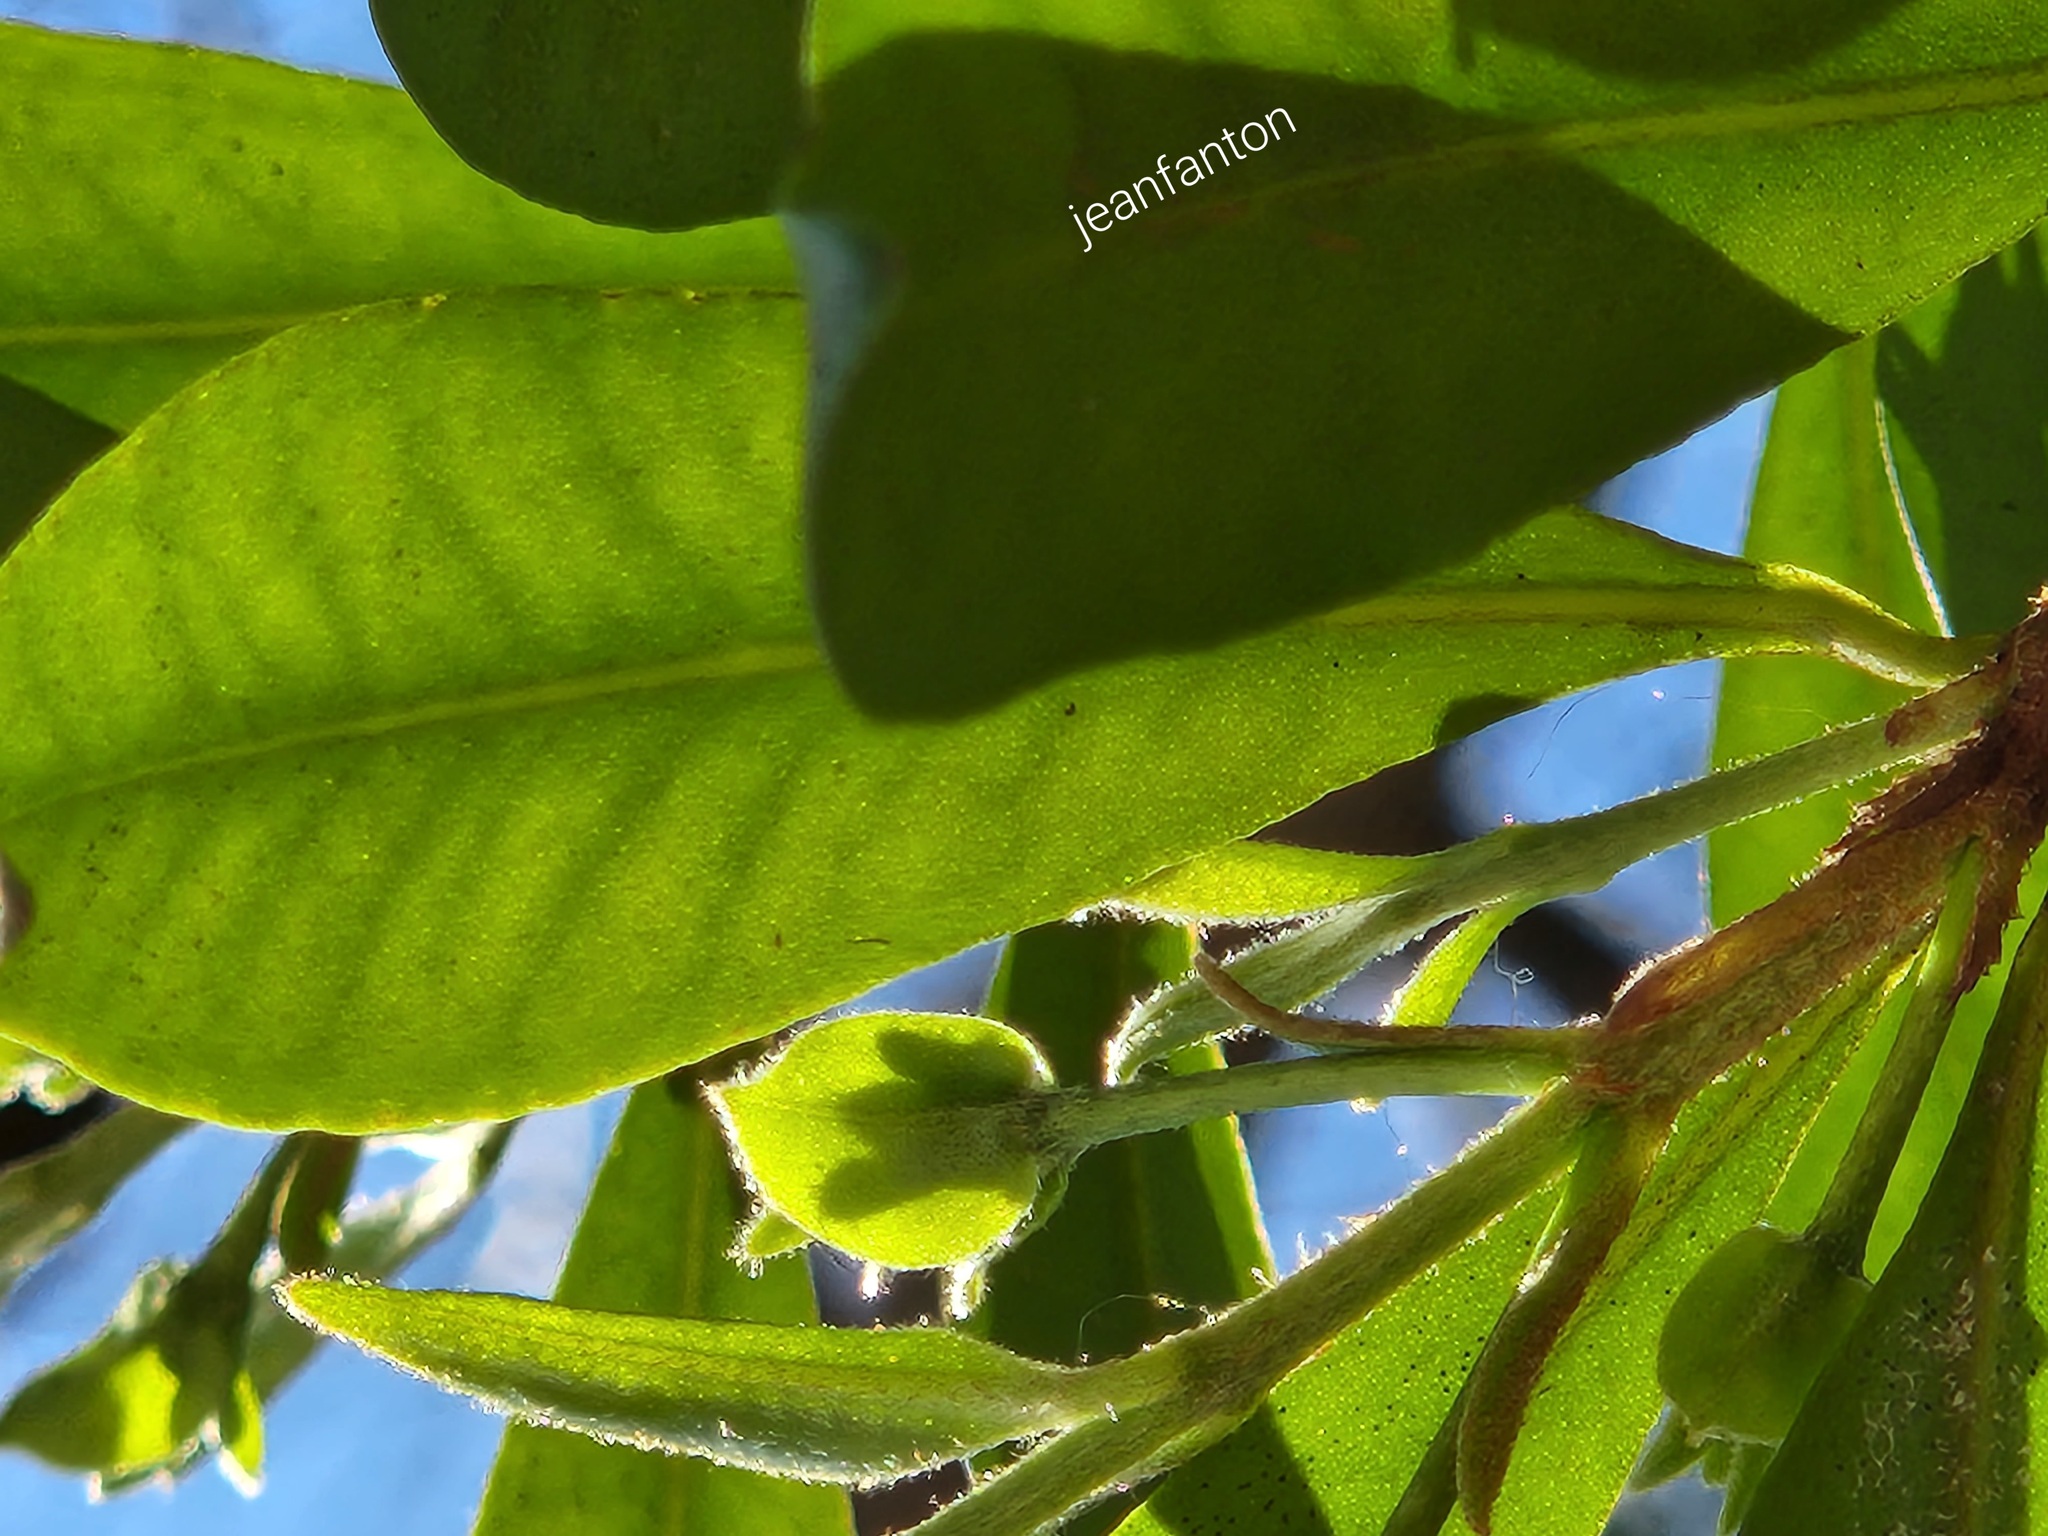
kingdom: Plantae
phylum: Tracheophyta
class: Magnoliopsida
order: Myrtales
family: Myrtaceae
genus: Eugenia
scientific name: Eugenia involucrata
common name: Cherry-of-the-rio grande
